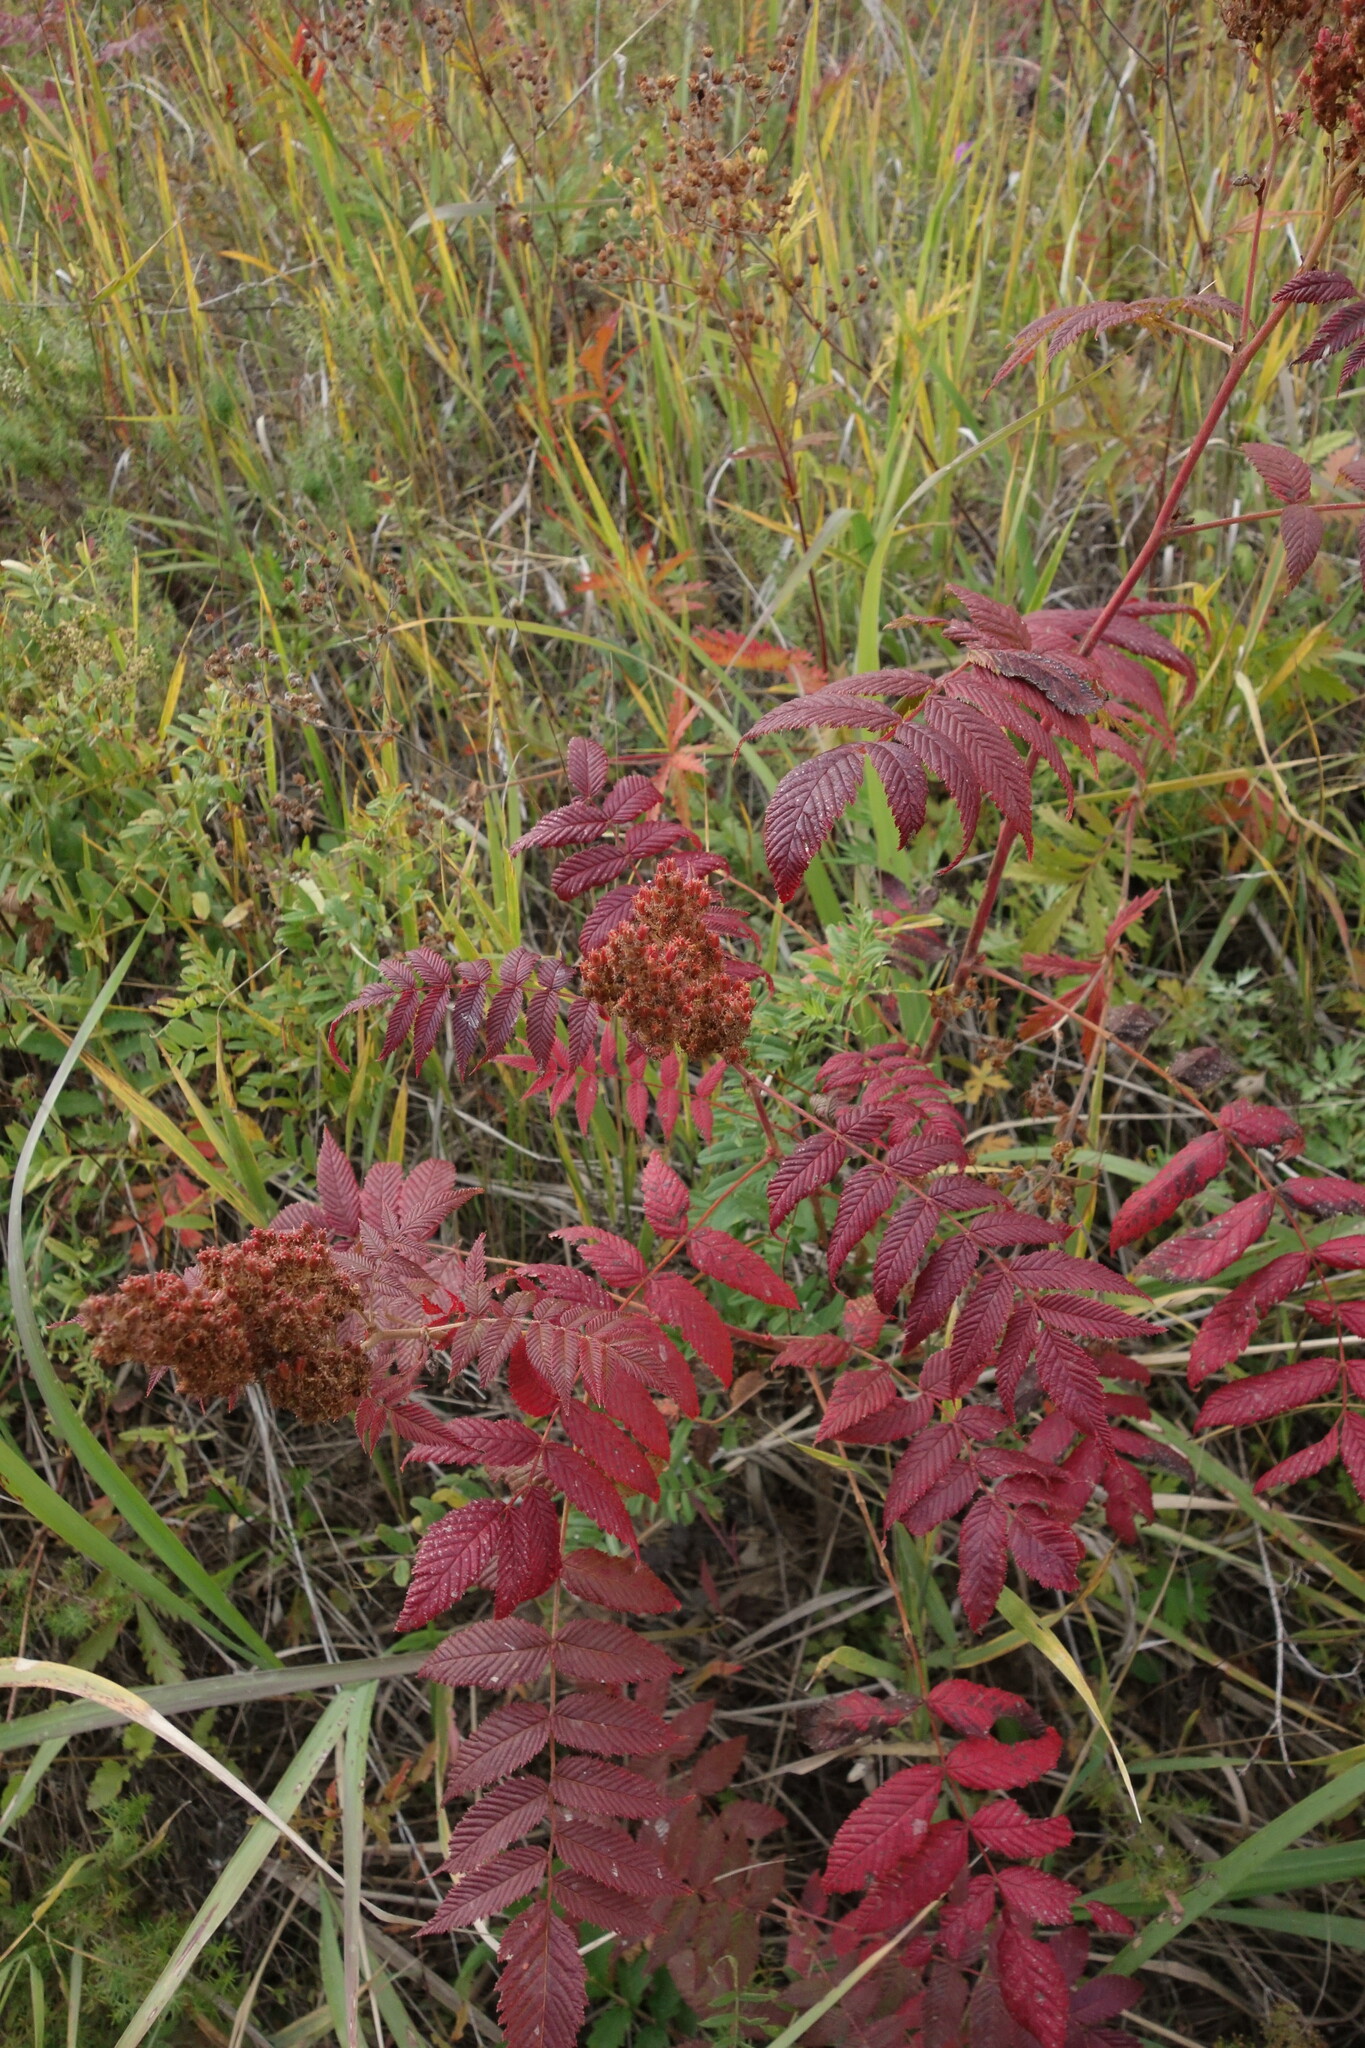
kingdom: Plantae
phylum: Tracheophyta
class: Magnoliopsida
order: Rosales
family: Rosaceae
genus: Sorbaria
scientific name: Sorbaria sorbifolia
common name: False spiraea
